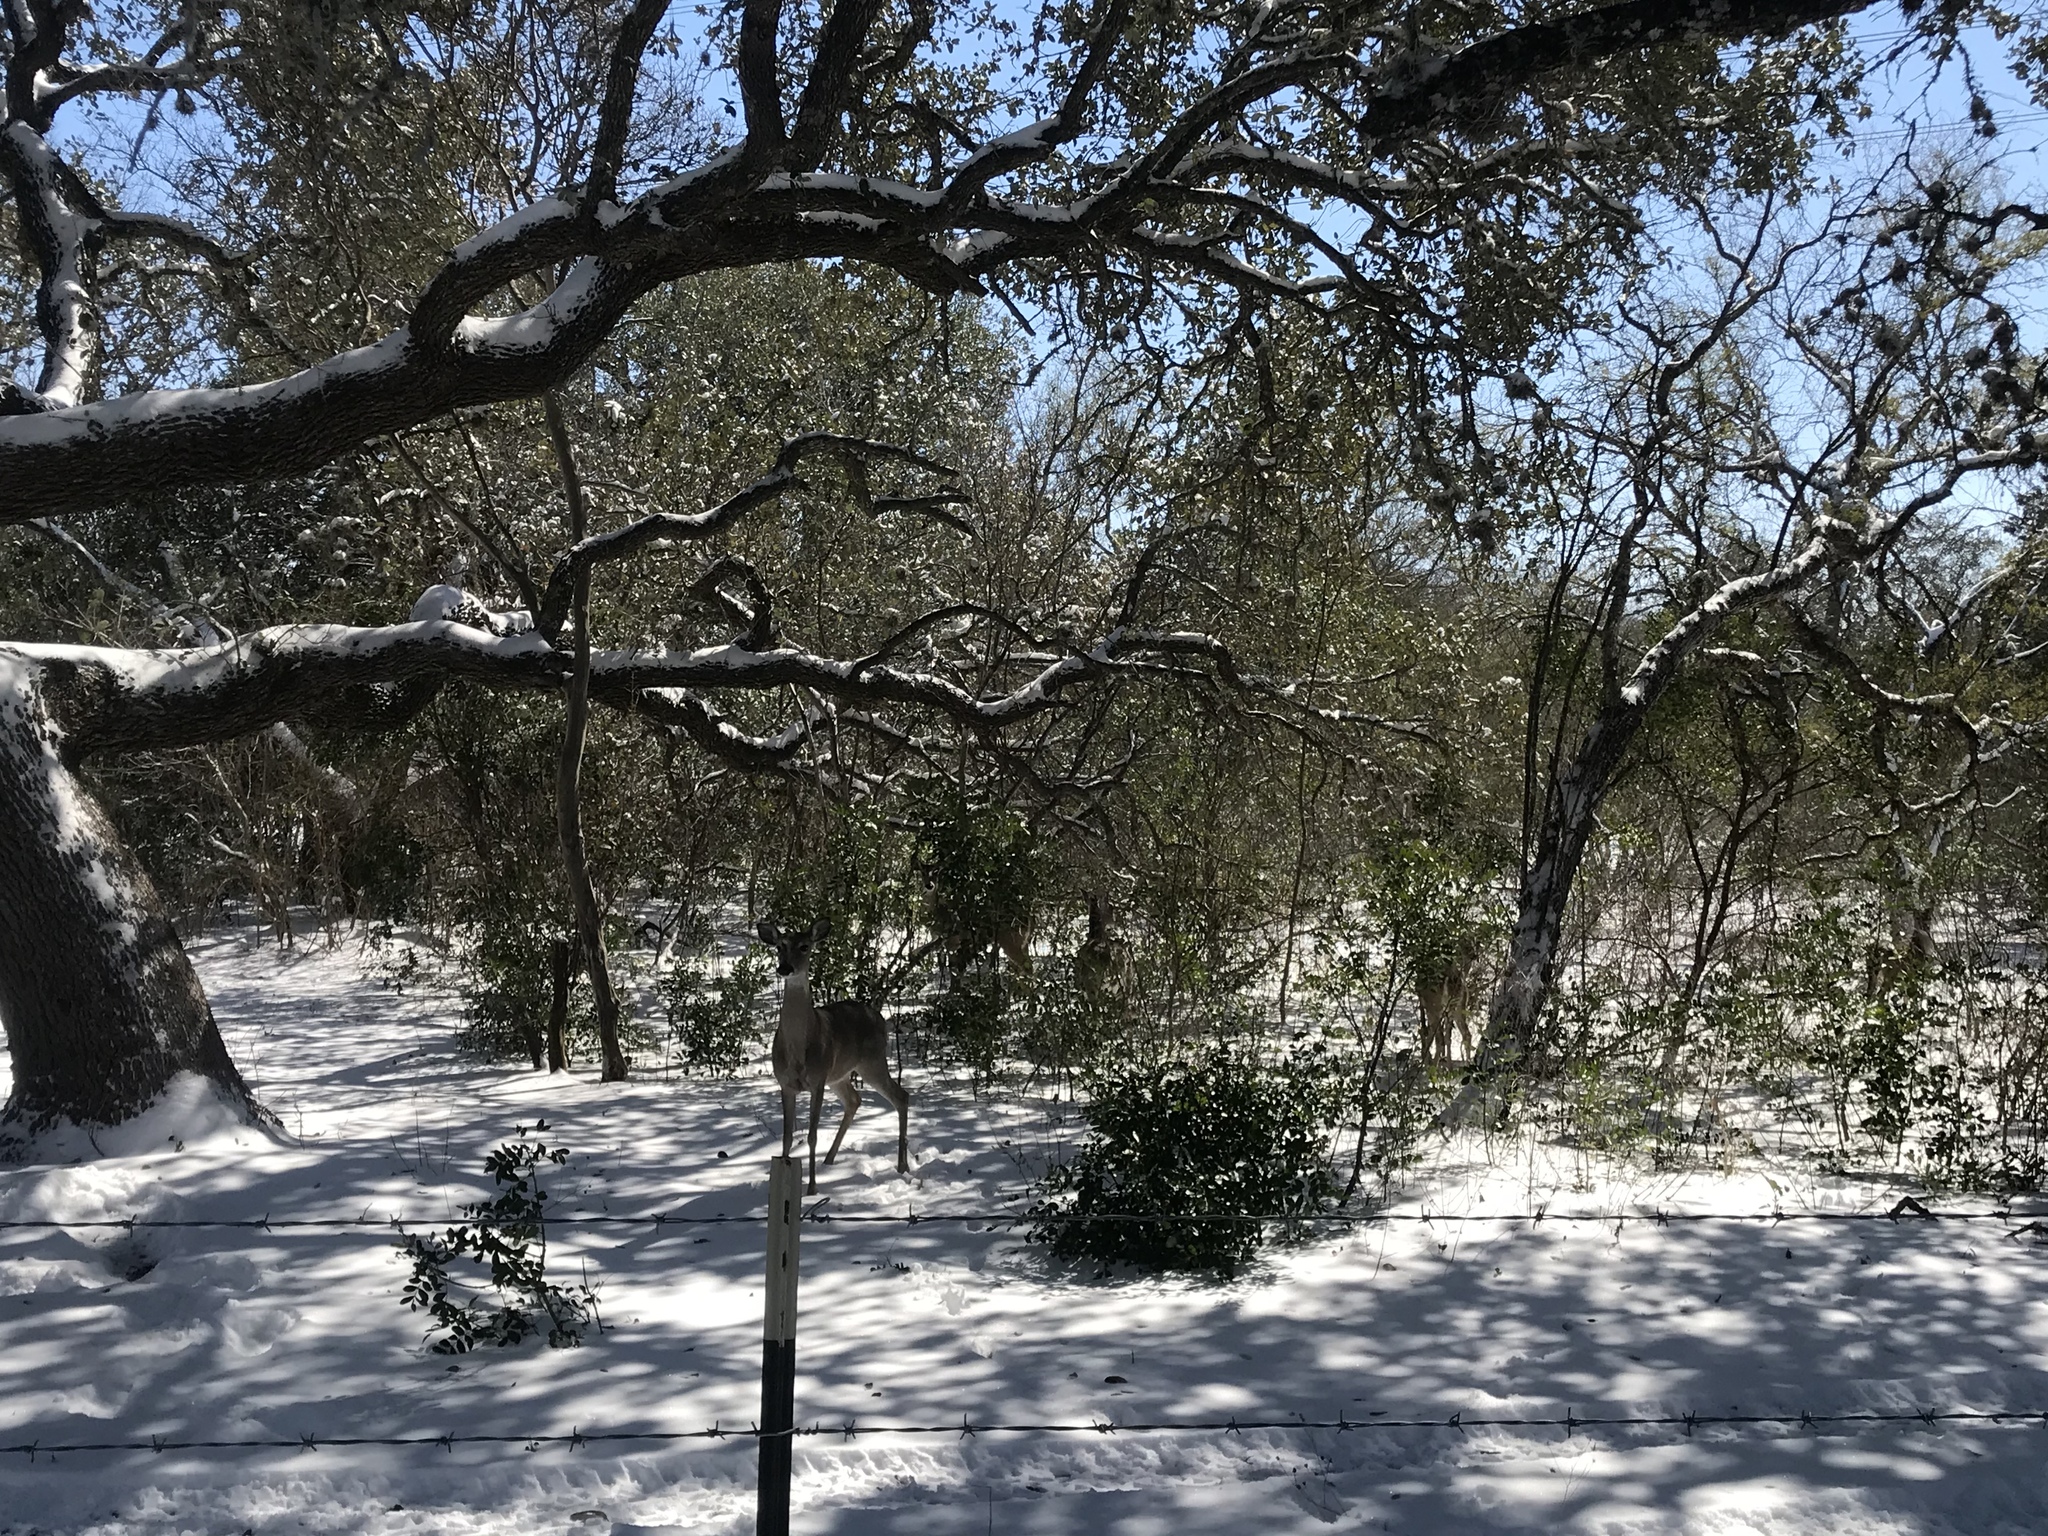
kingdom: Animalia
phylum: Chordata
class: Mammalia
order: Artiodactyla
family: Cervidae
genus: Odocoileus
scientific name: Odocoileus virginianus
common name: White-tailed deer
